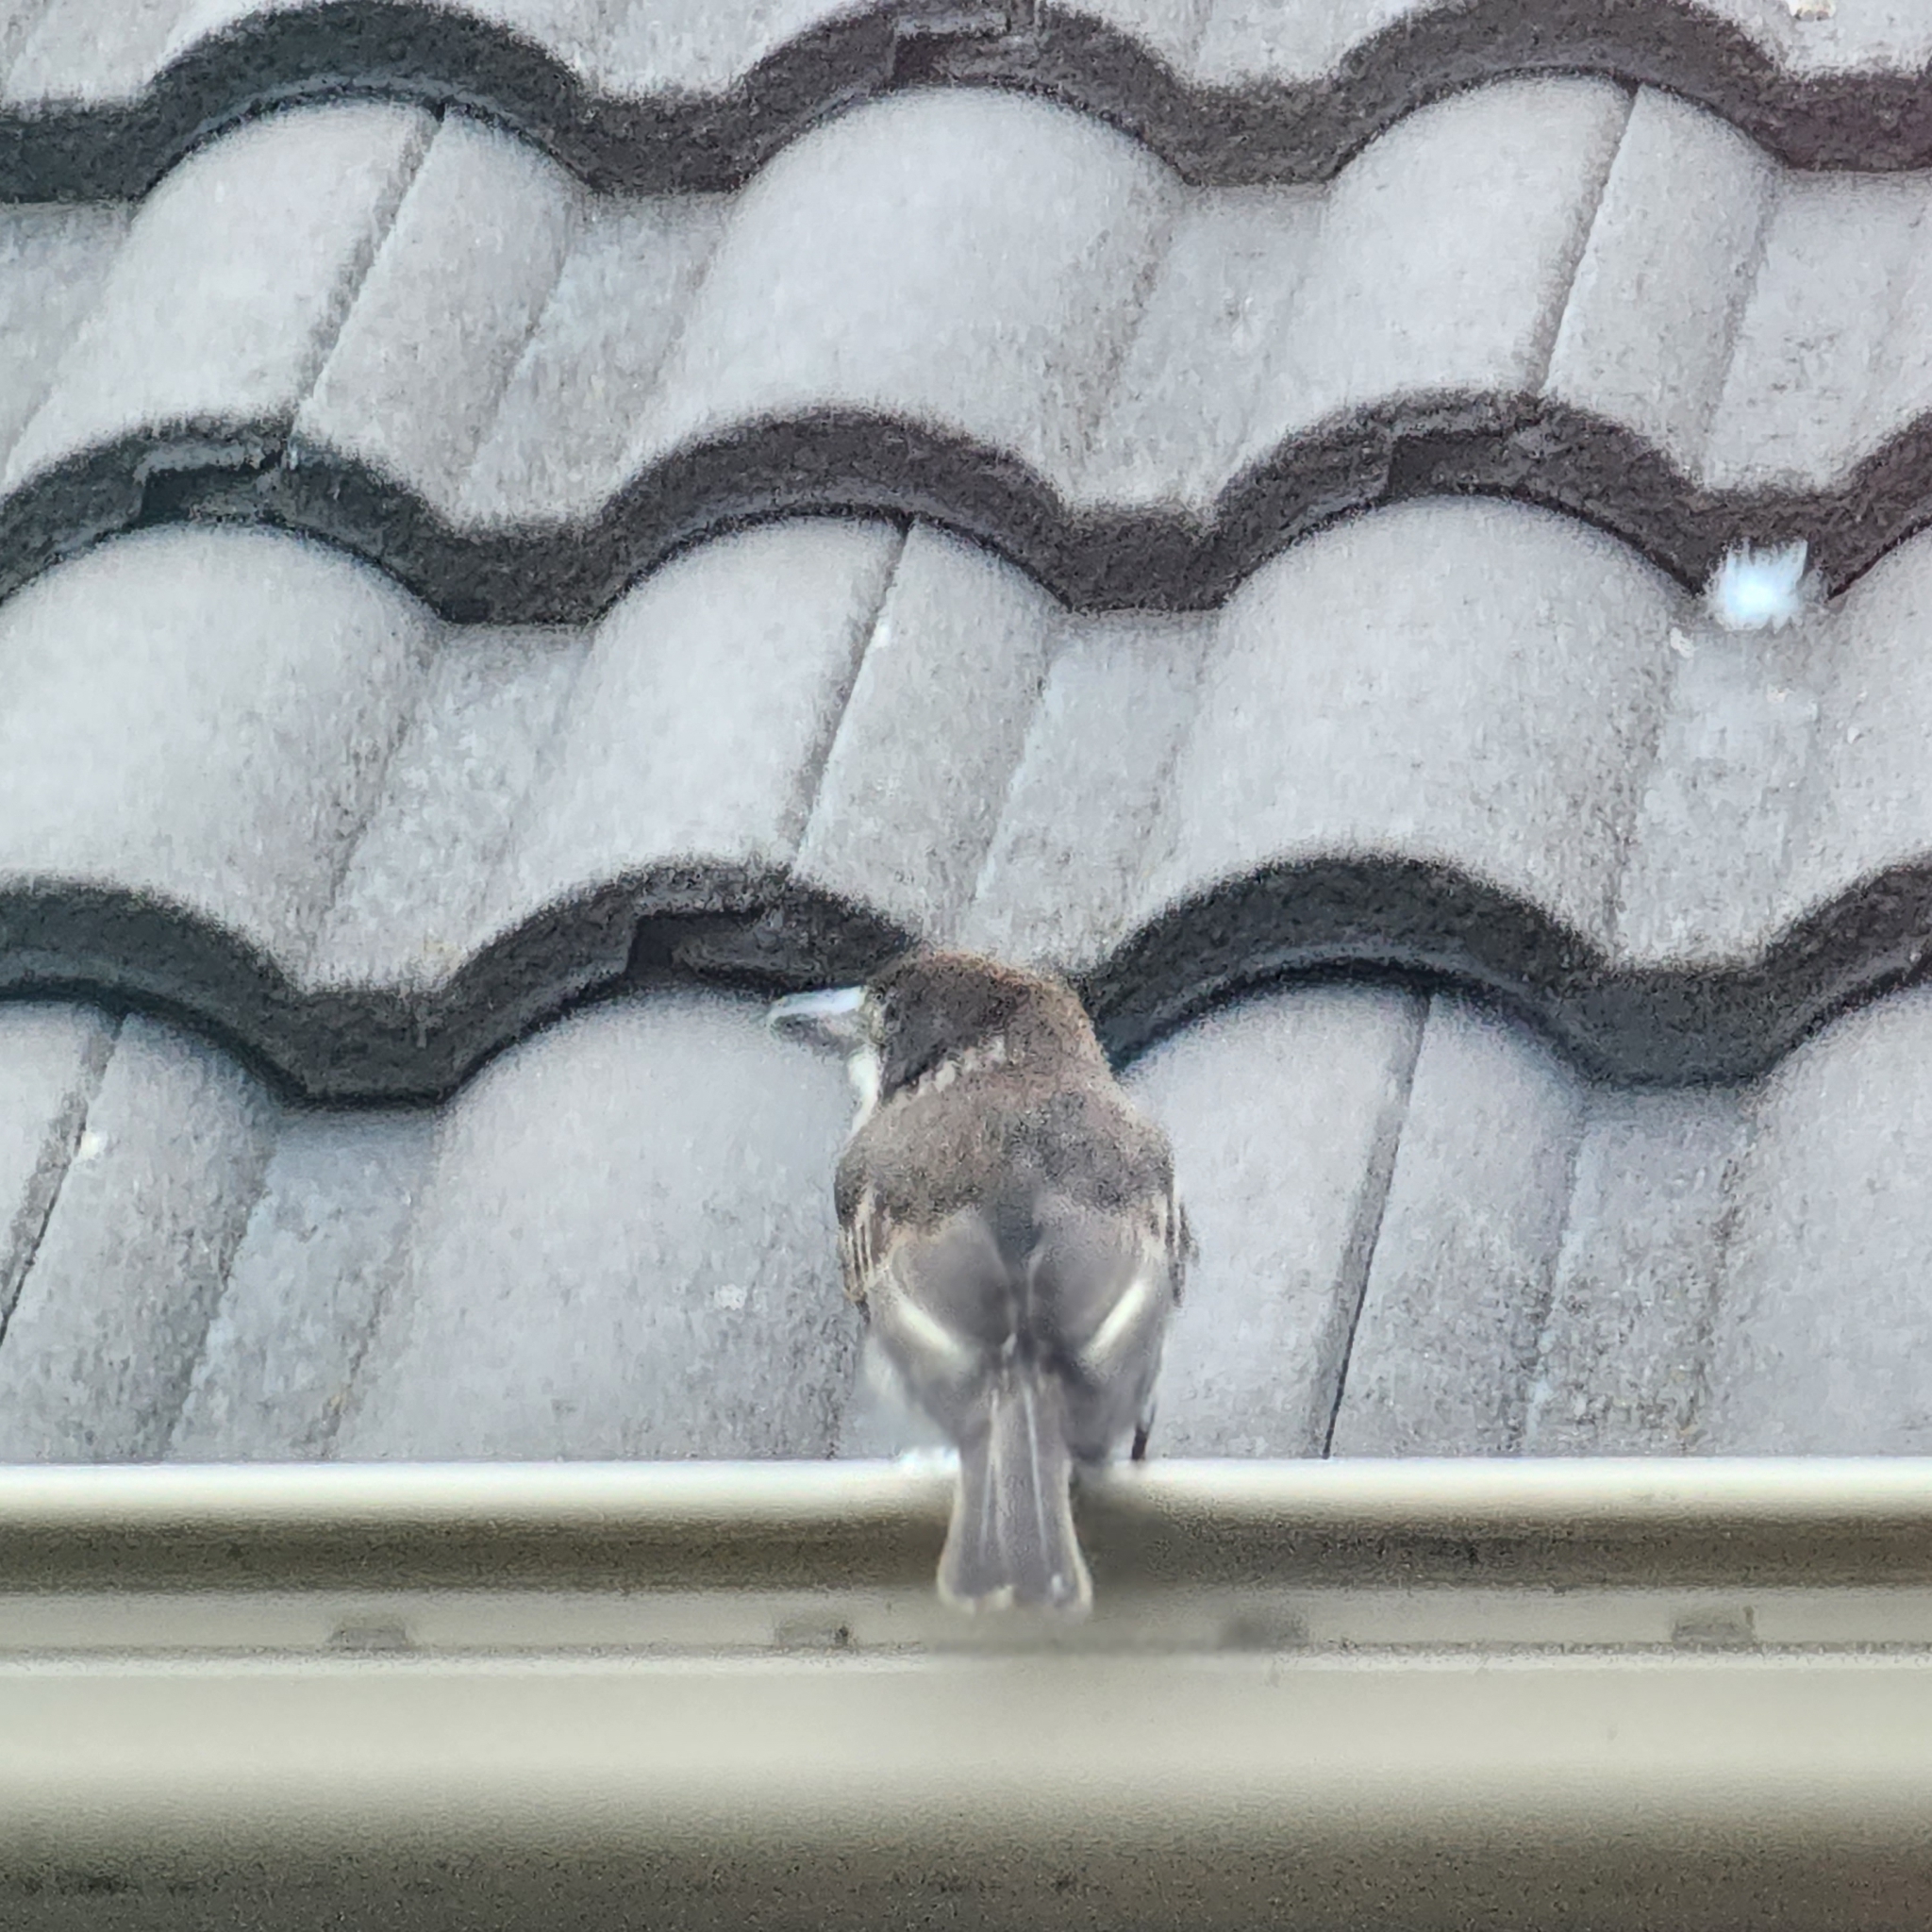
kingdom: Animalia
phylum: Chordata
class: Aves
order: Passeriformes
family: Cracticidae
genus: Cracticus
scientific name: Cracticus torquatus
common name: Grey butcherbird
